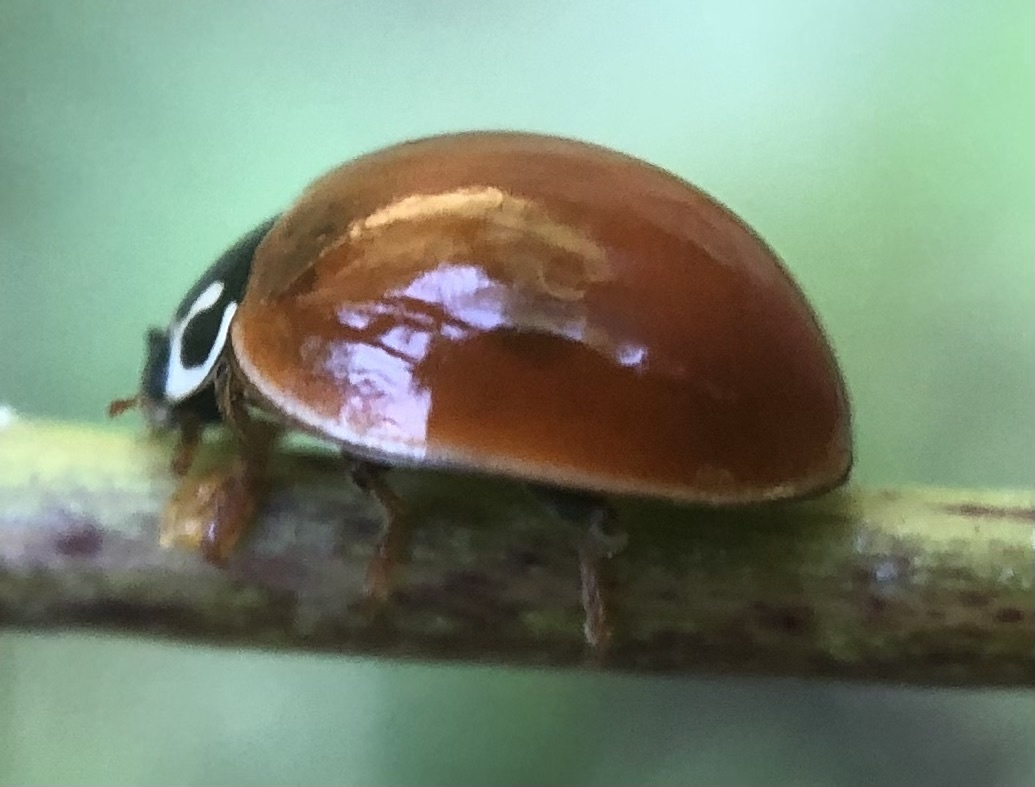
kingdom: Animalia
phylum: Arthropoda
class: Insecta
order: Coleoptera
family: Coccinellidae
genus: Cycloneda
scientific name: Cycloneda munda
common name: Polished lady beetle
